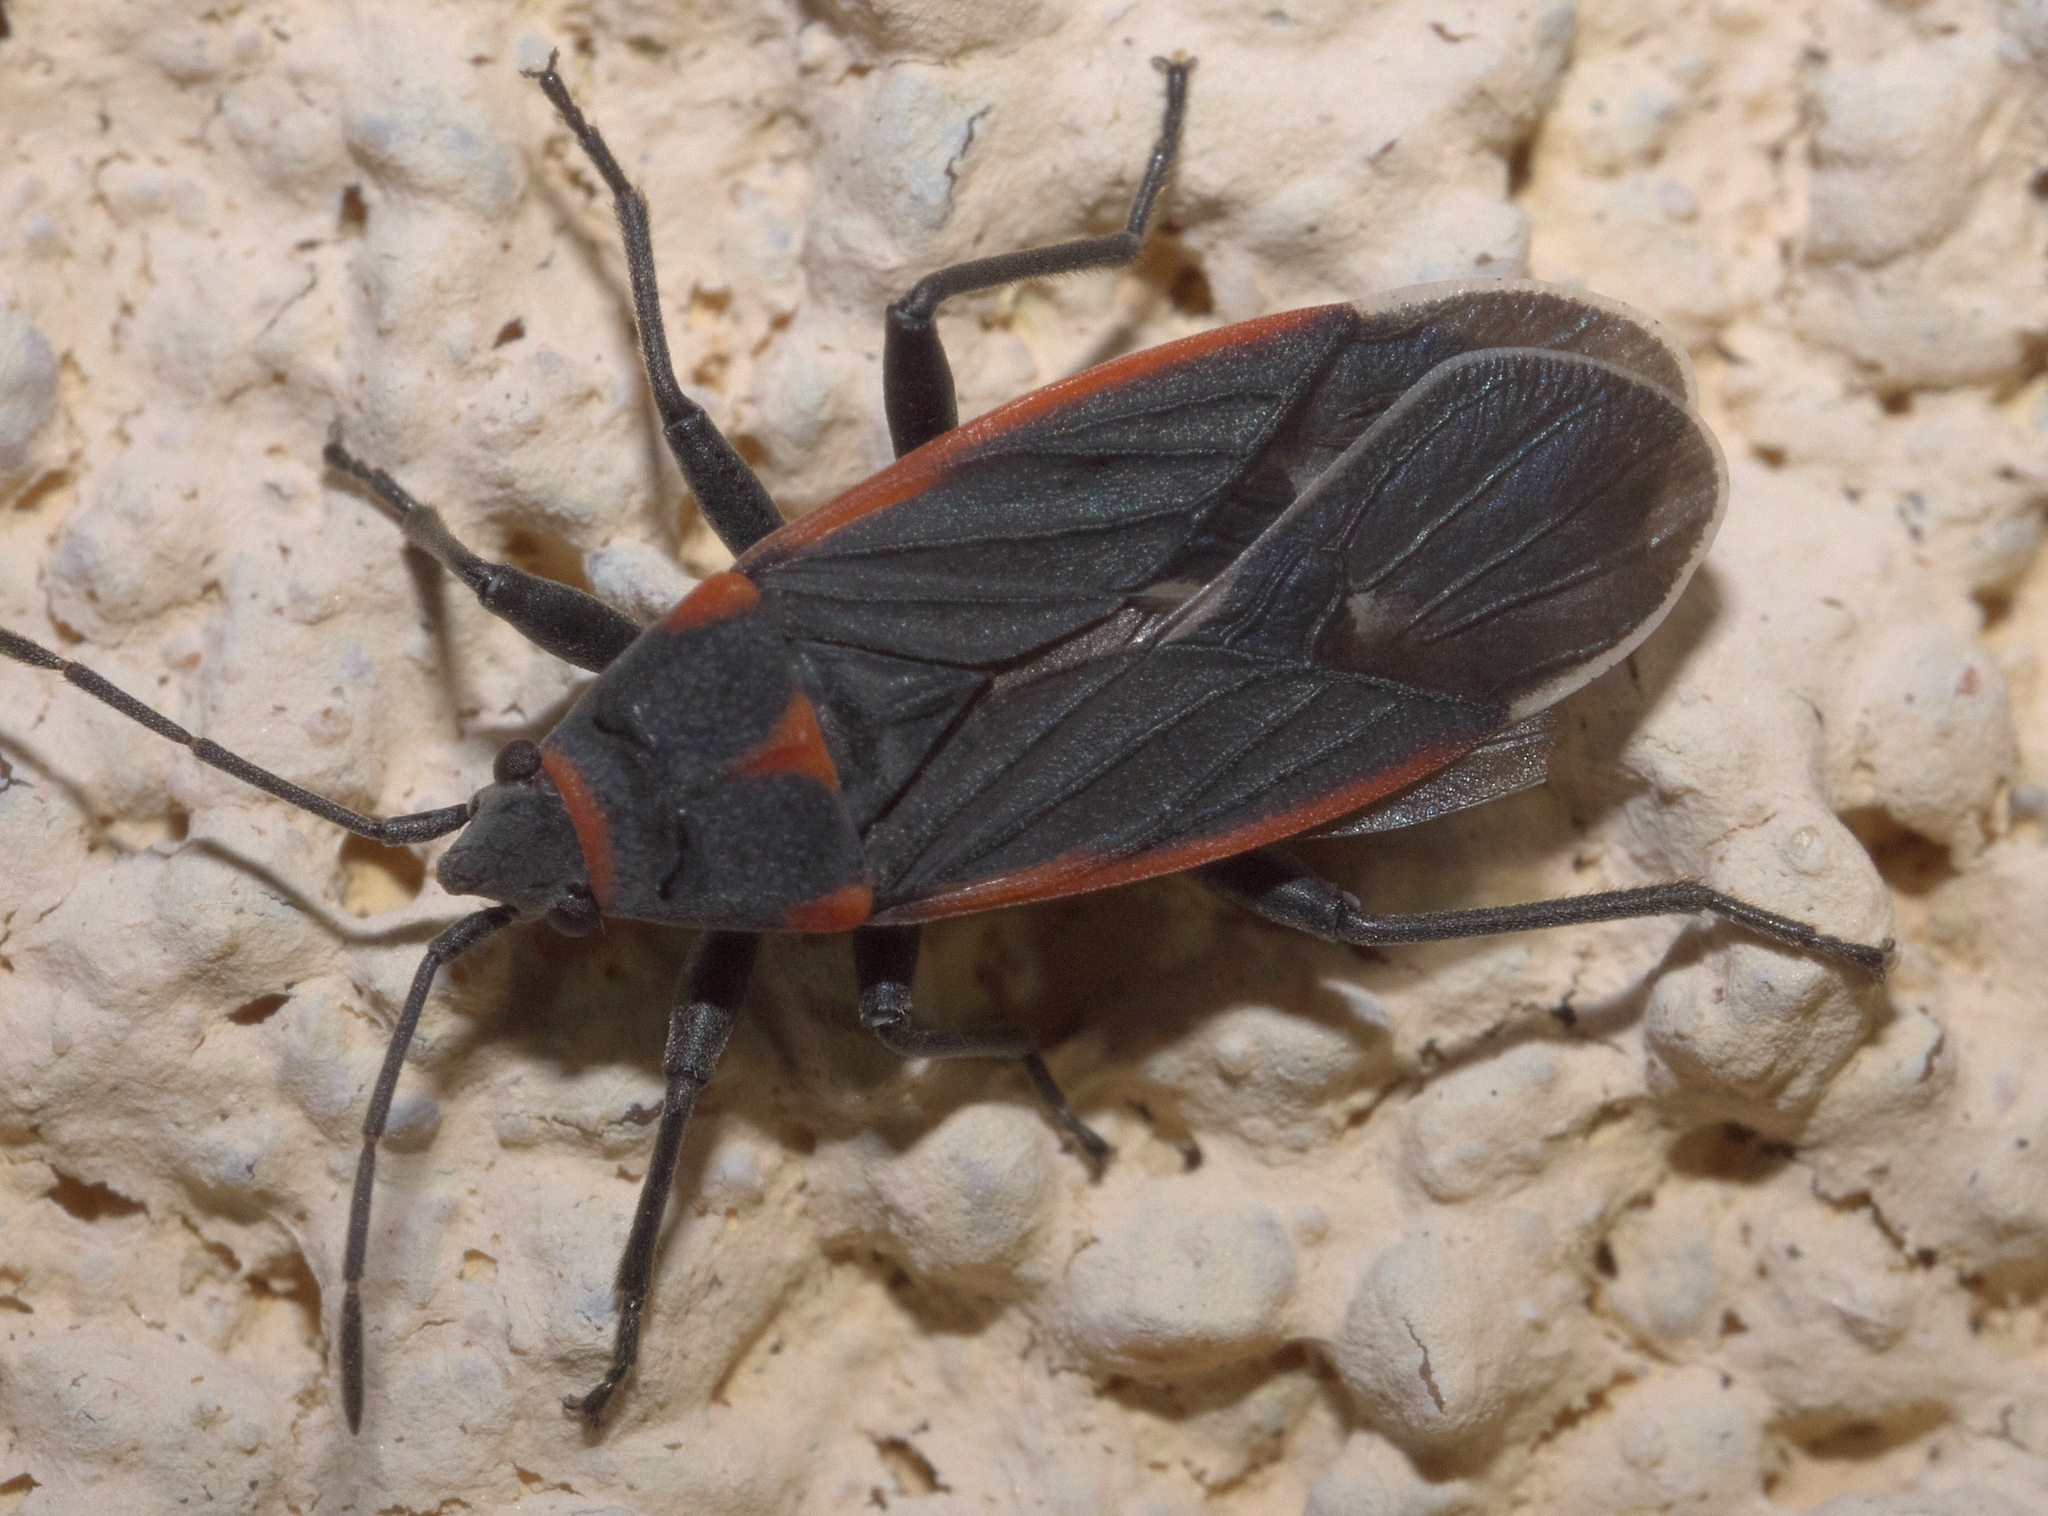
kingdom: Animalia
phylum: Arthropoda
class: Insecta
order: Hemiptera
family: Lygaeidae
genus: Melacoryphus
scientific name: Melacoryphus lateralis
